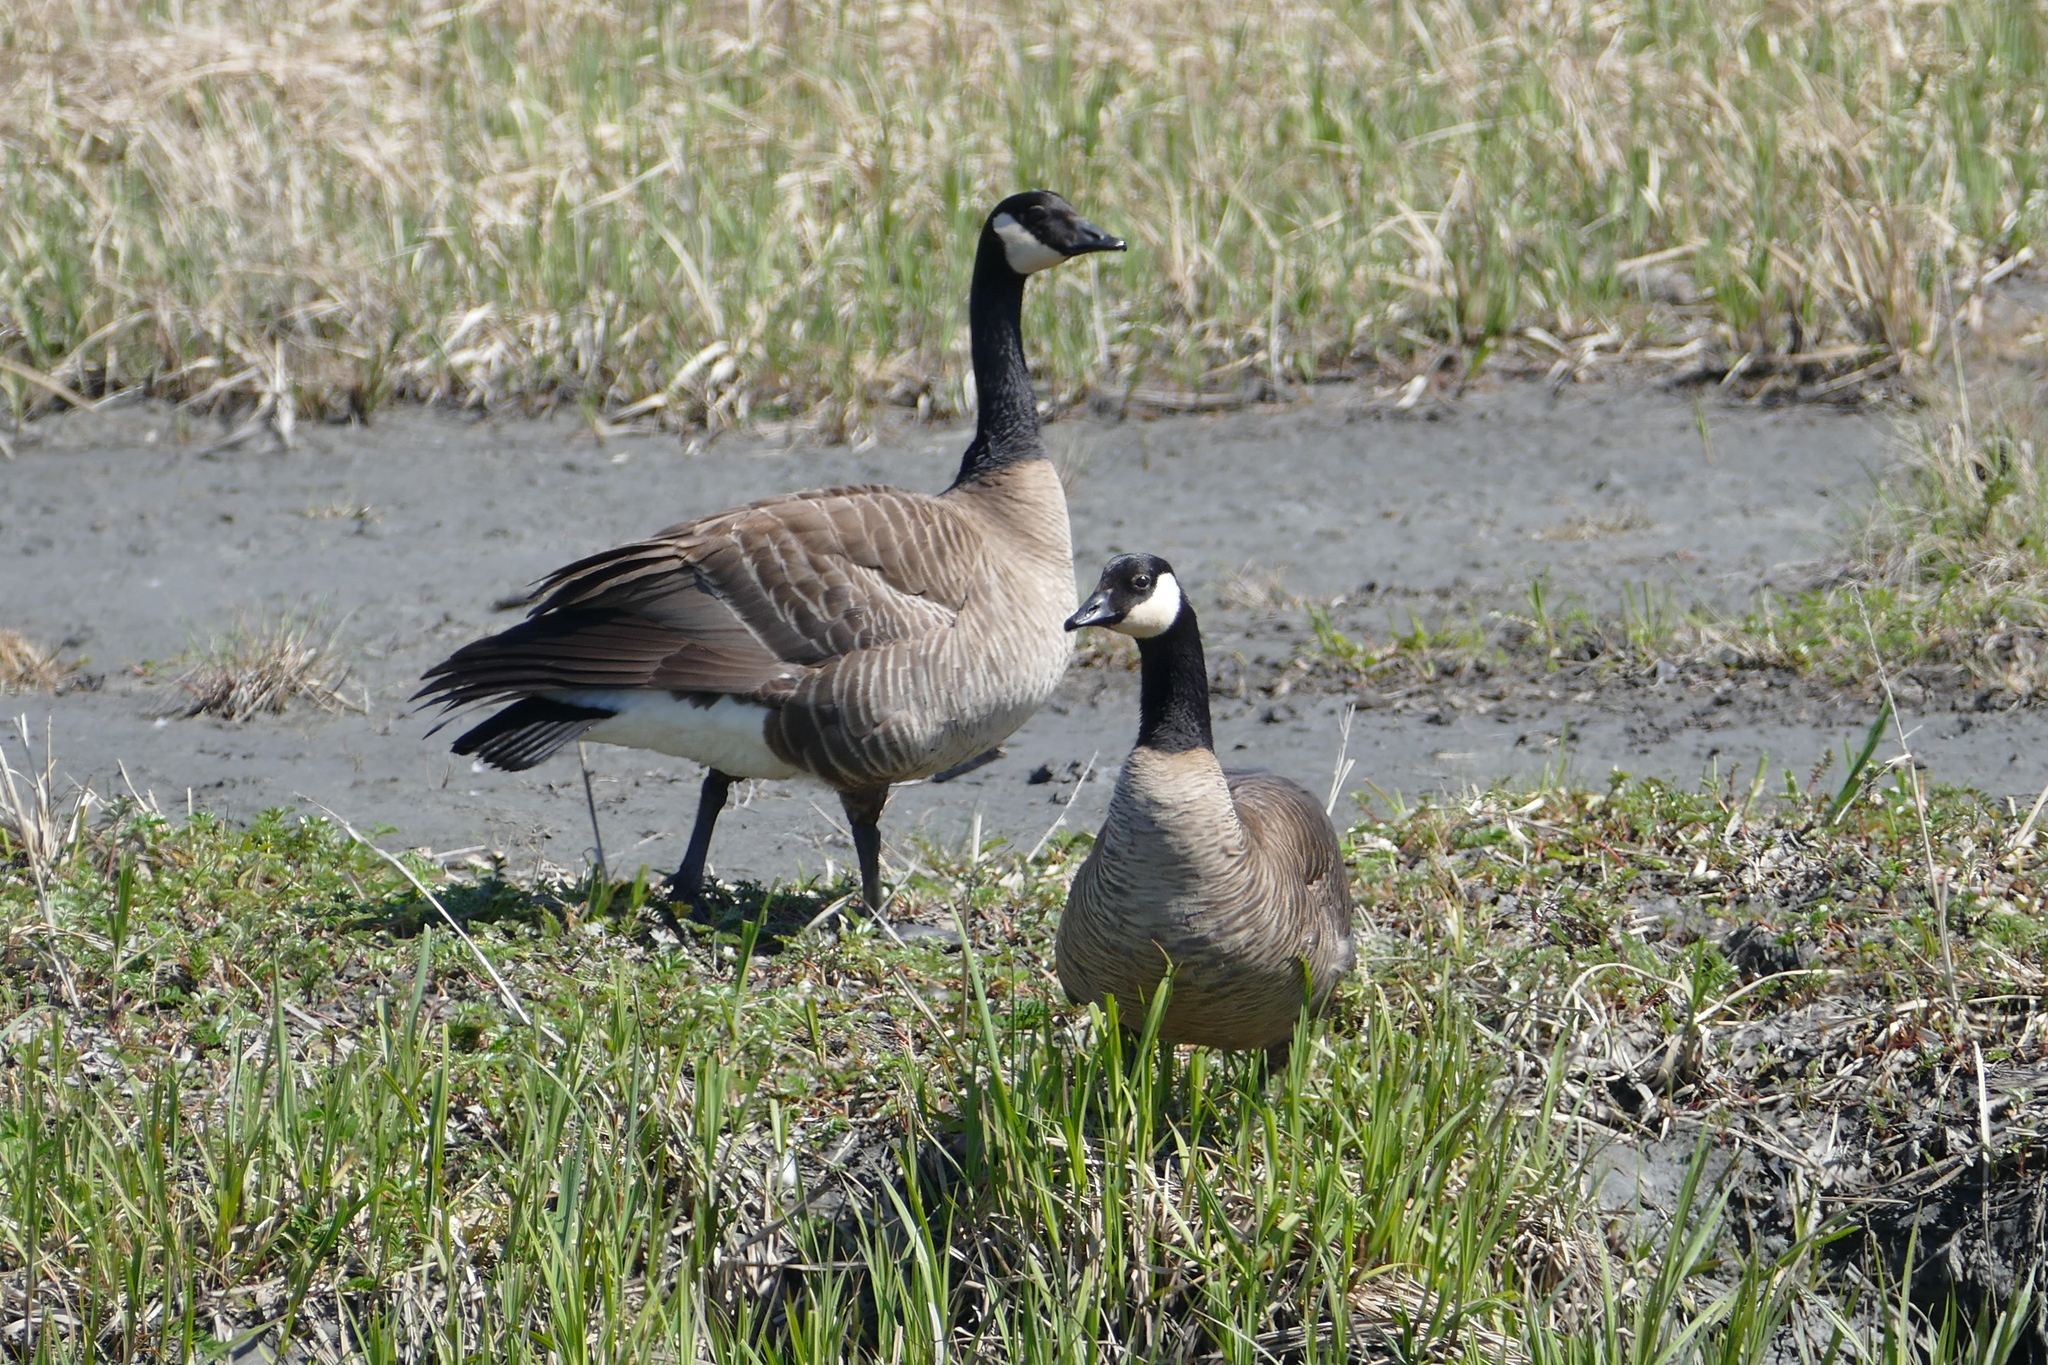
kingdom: Animalia
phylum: Chordata
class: Aves
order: Anseriformes
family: Anatidae
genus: Branta
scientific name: Branta hutchinsii
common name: Cackling goose
